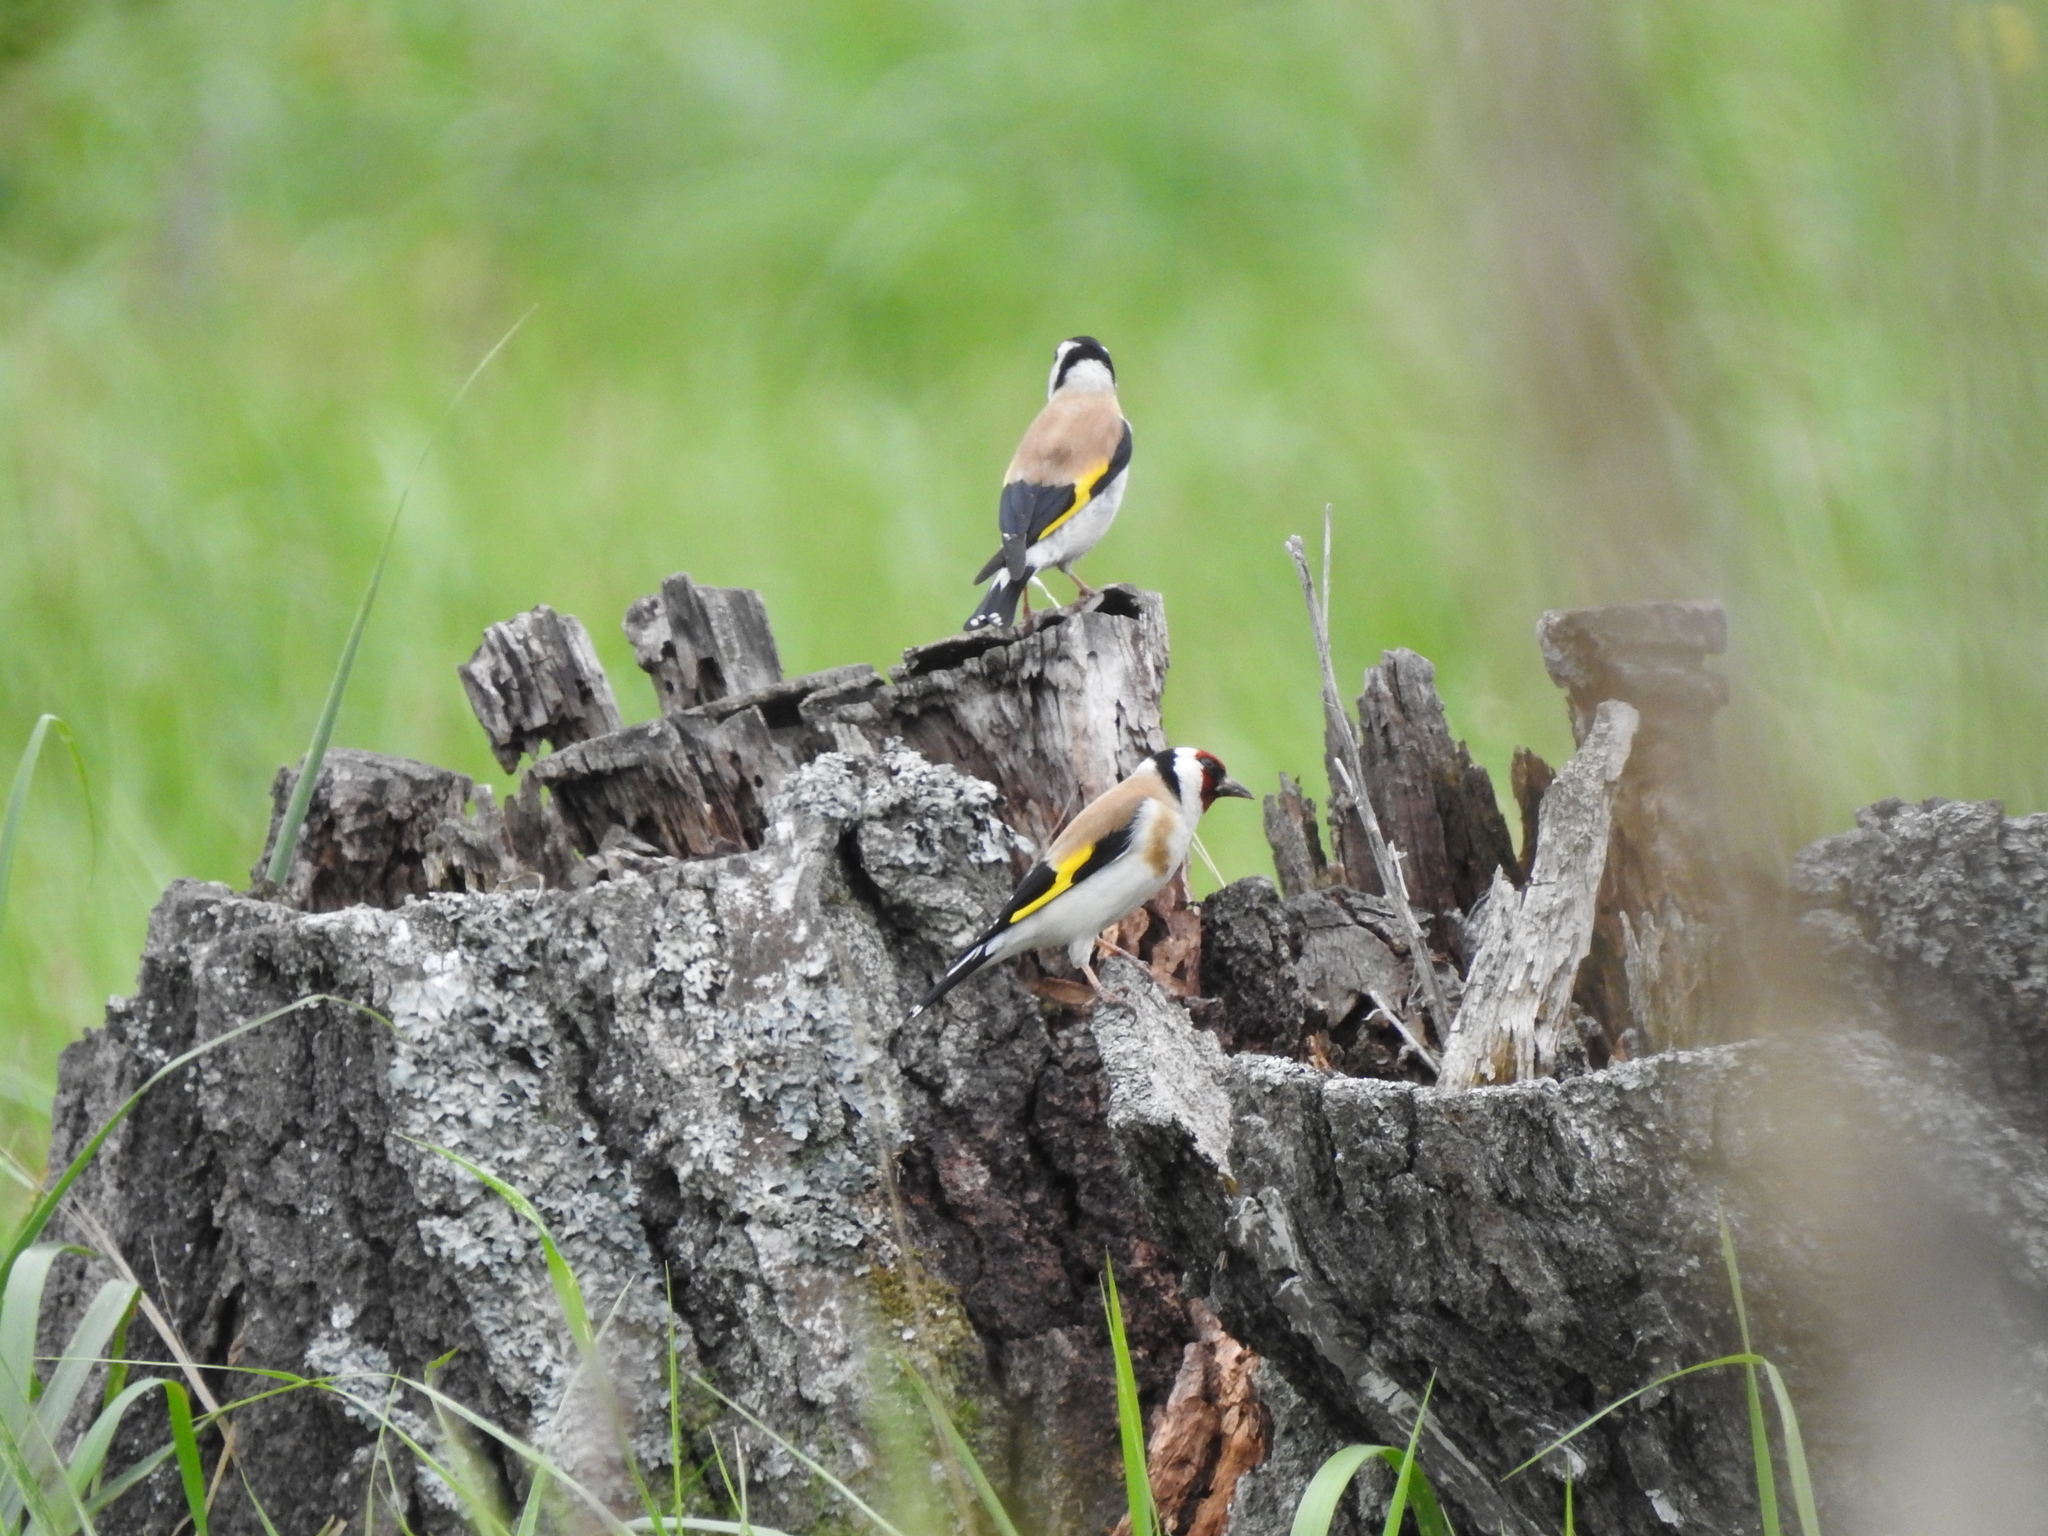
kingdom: Animalia
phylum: Chordata
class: Aves
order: Passeriformes
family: Fringillidae
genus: Carduelis
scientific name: Carduelis carduelis
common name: European goldfinch
